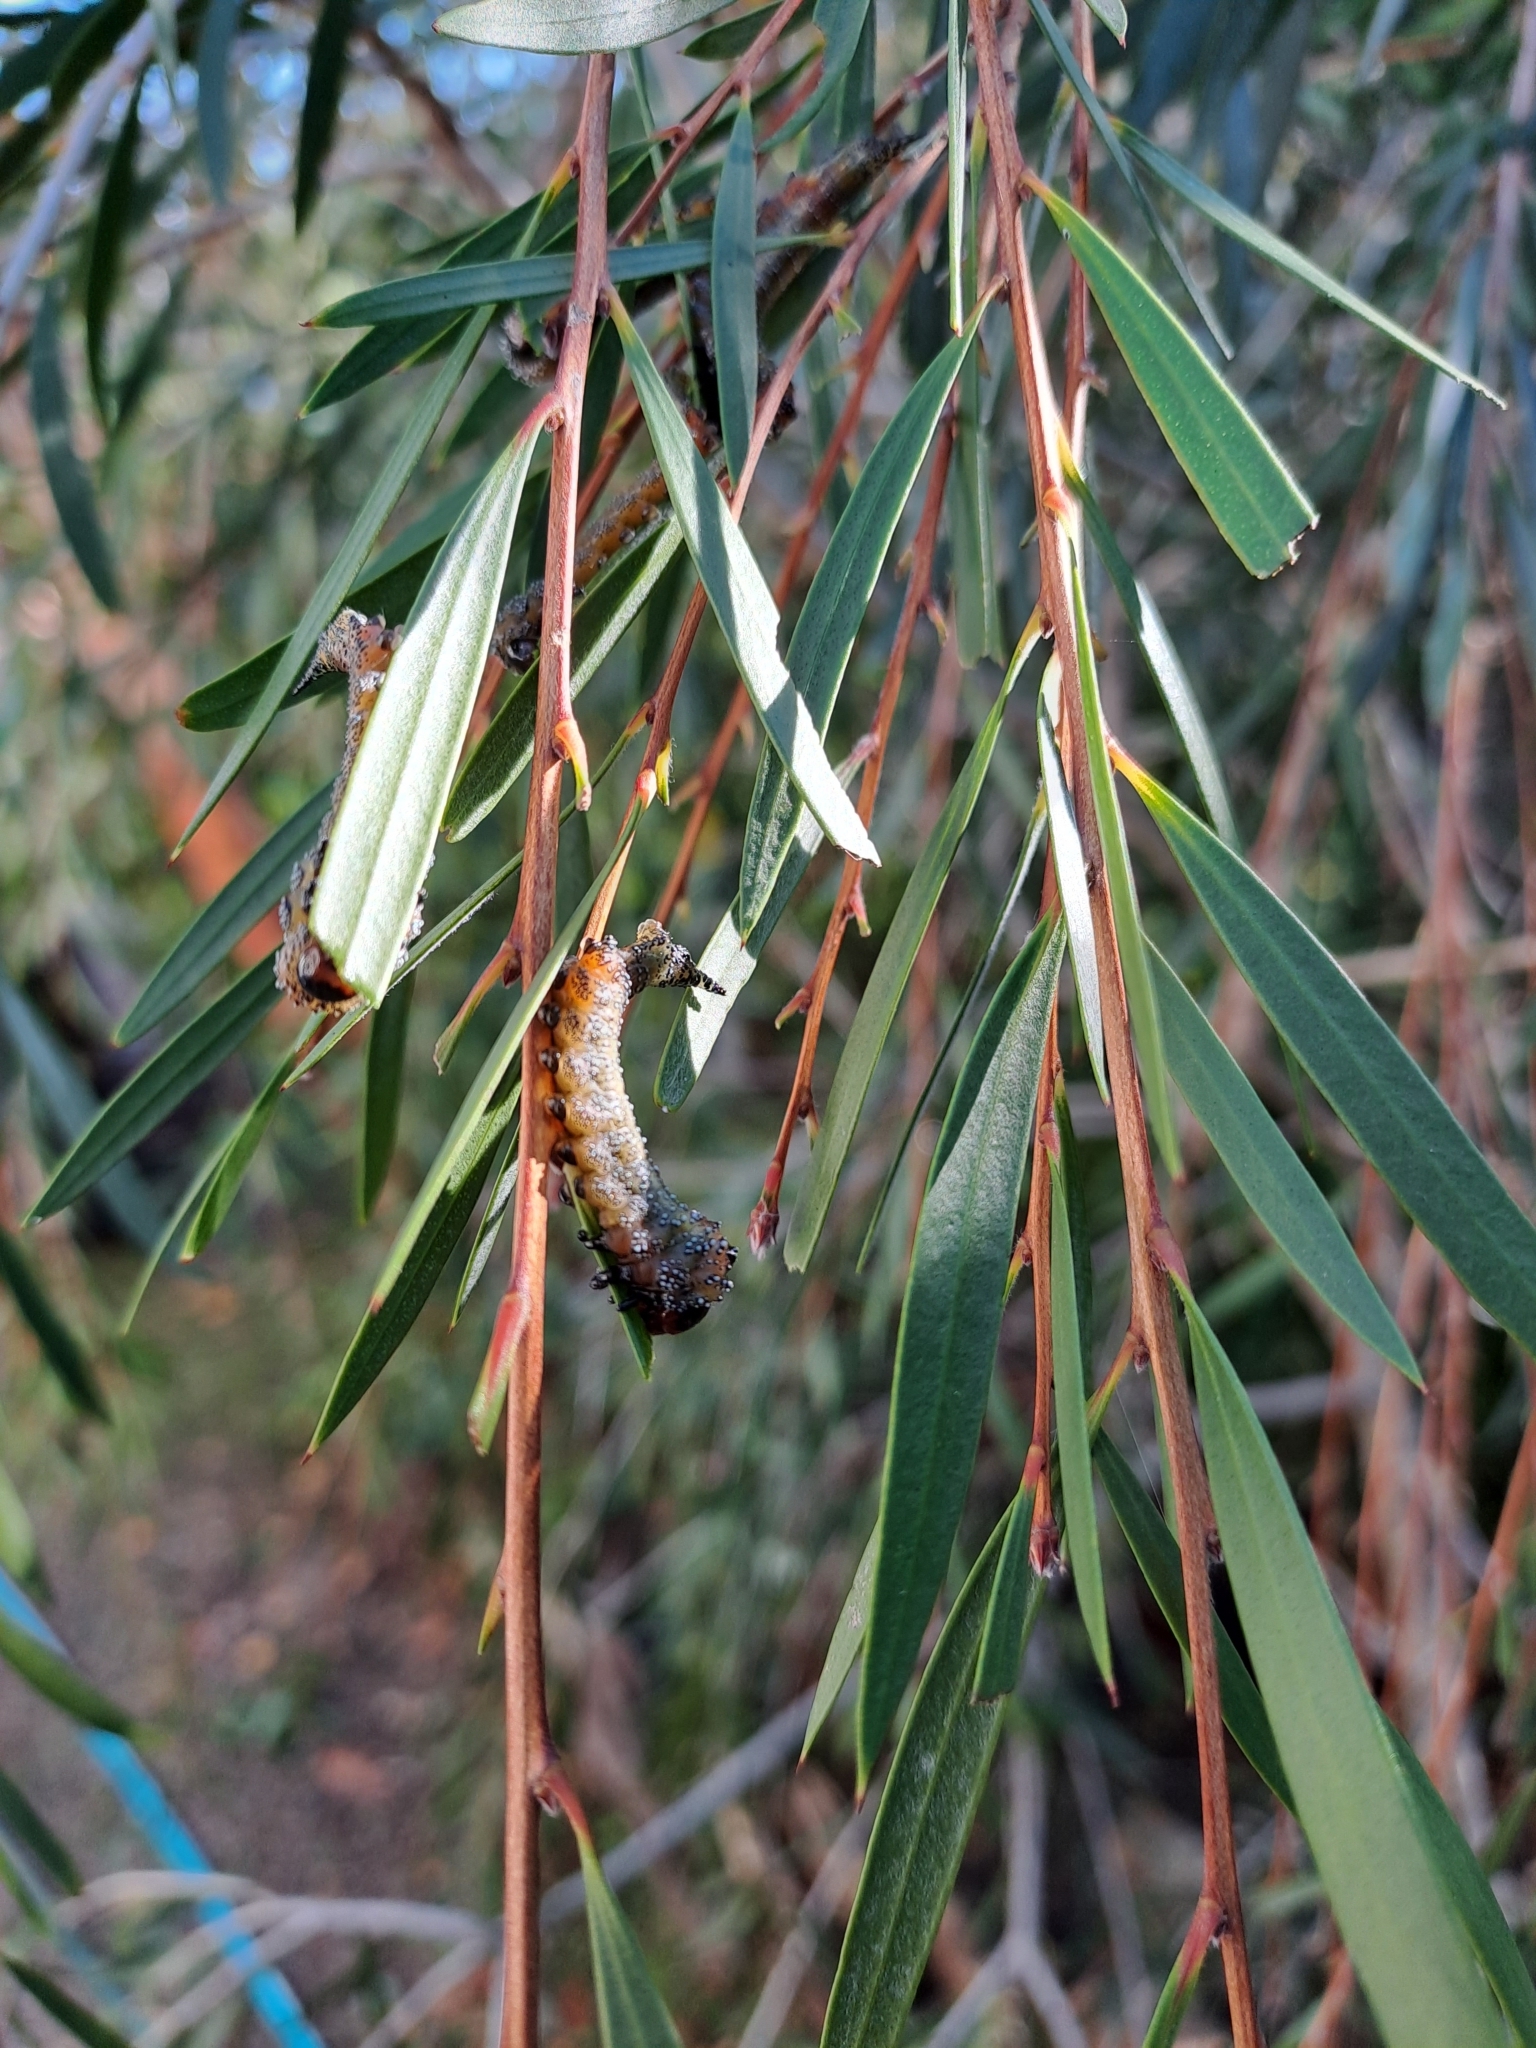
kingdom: Animalia
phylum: Arthropoda
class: Insecta
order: Hymenoptera
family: Pergidae
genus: Pterygophorus
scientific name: Pterygophorus
